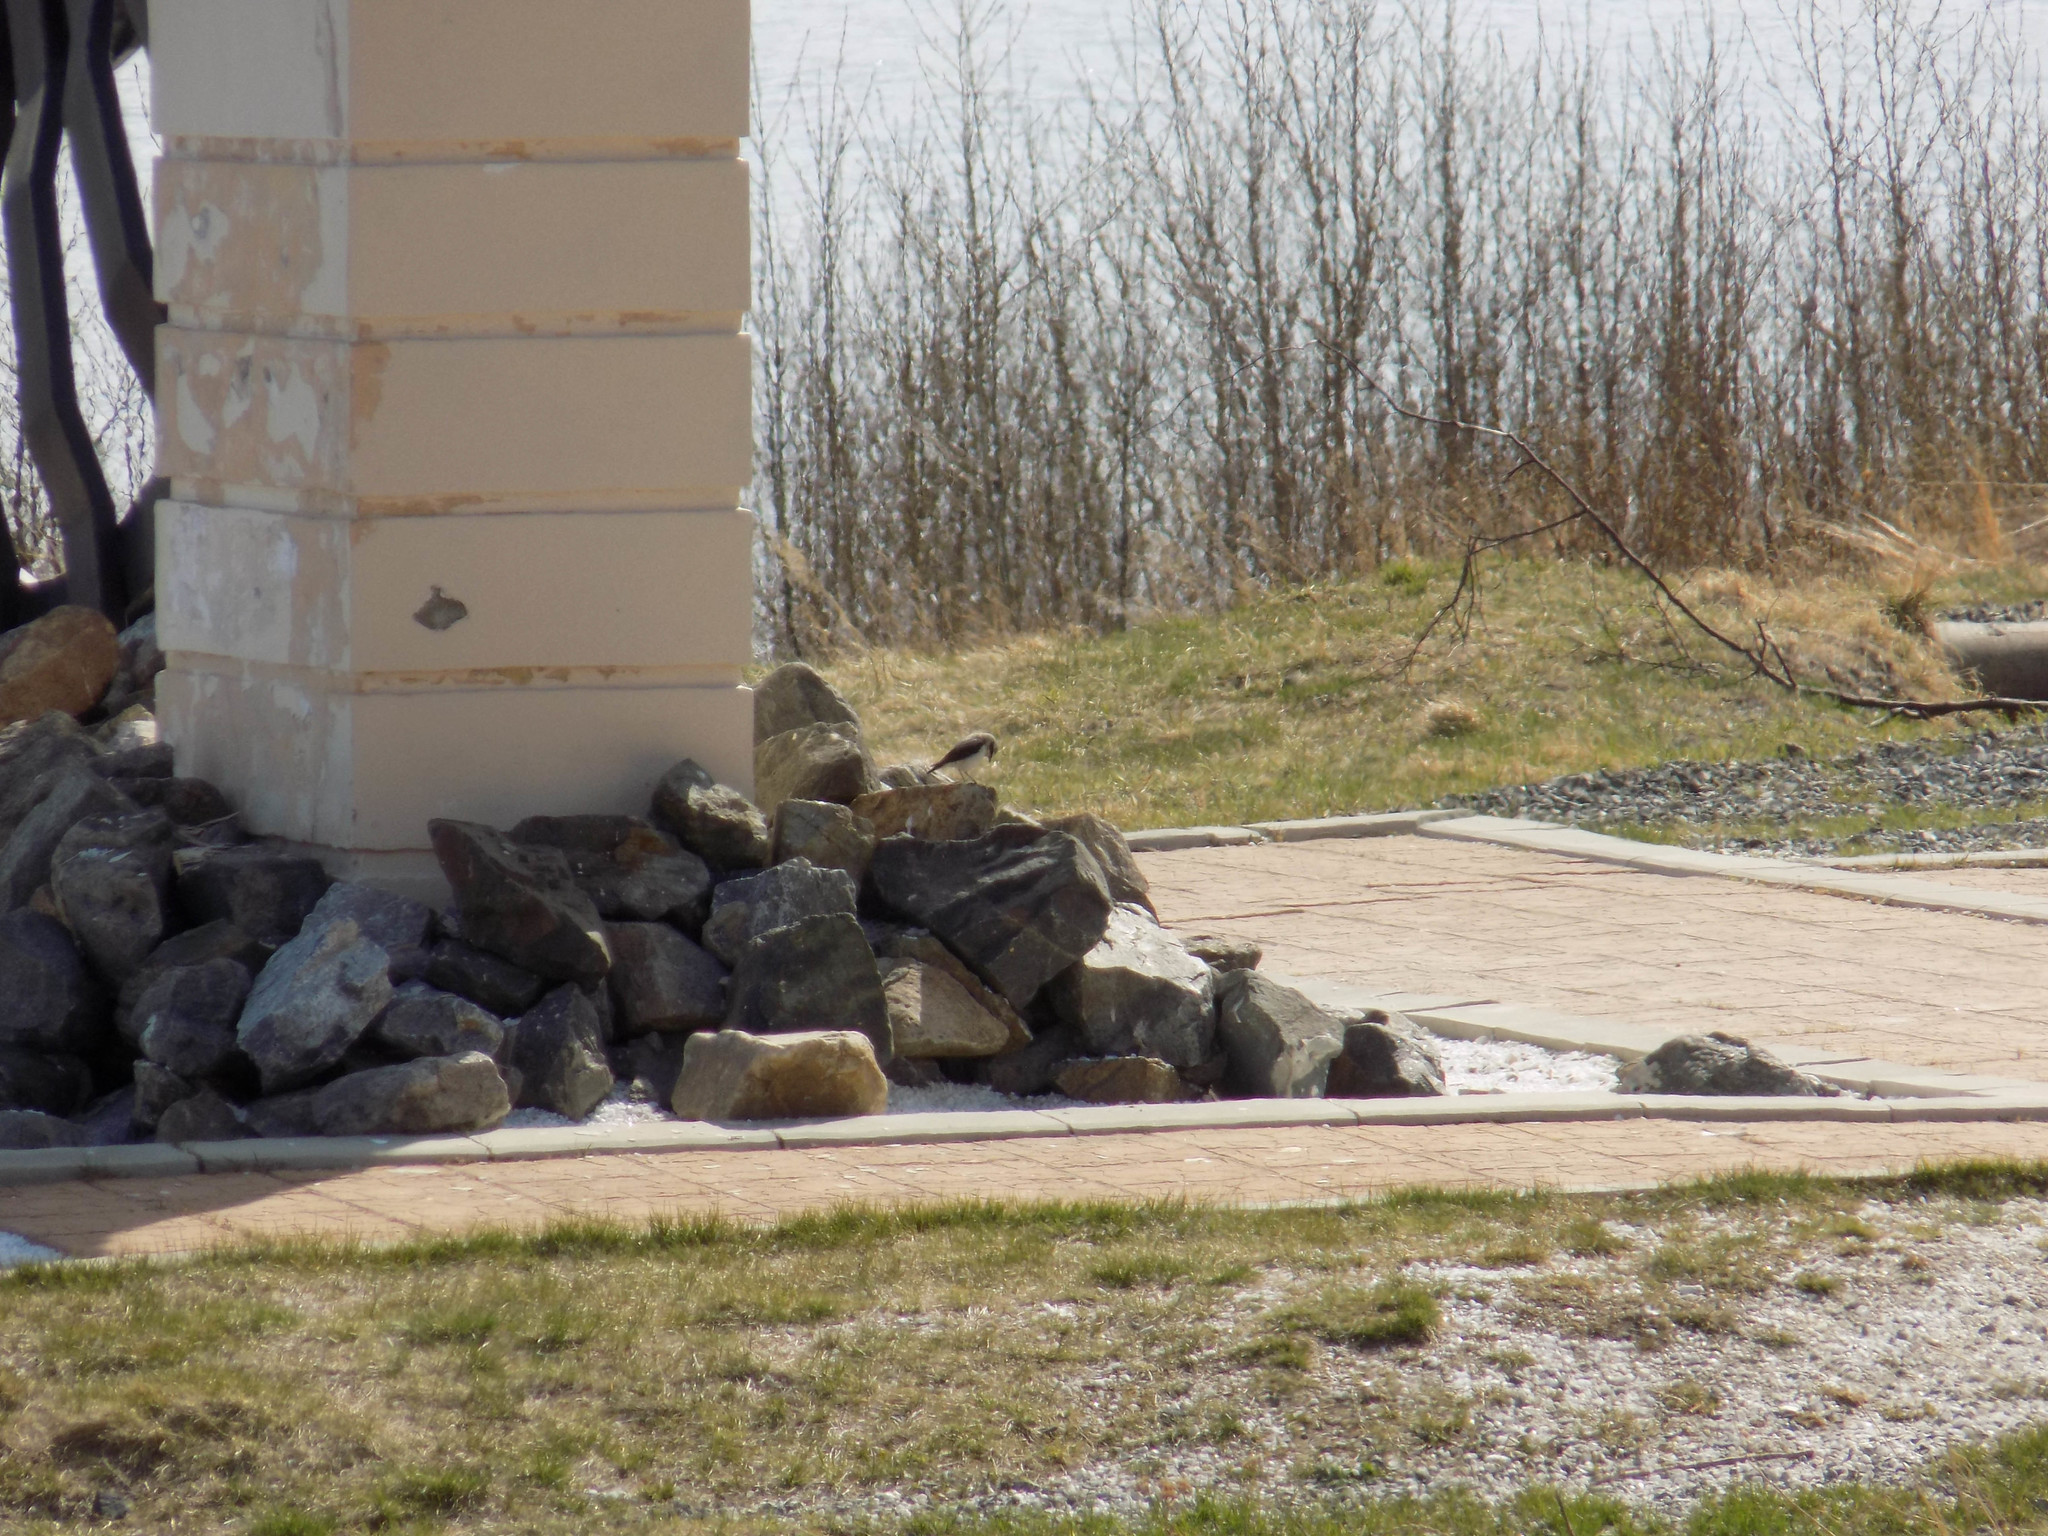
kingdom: Animalia
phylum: Chordata
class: Aves
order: Passeriformes
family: Muscicapidae
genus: Oenanthe
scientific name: Oenanthe oenanthe
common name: Northern wheatear
